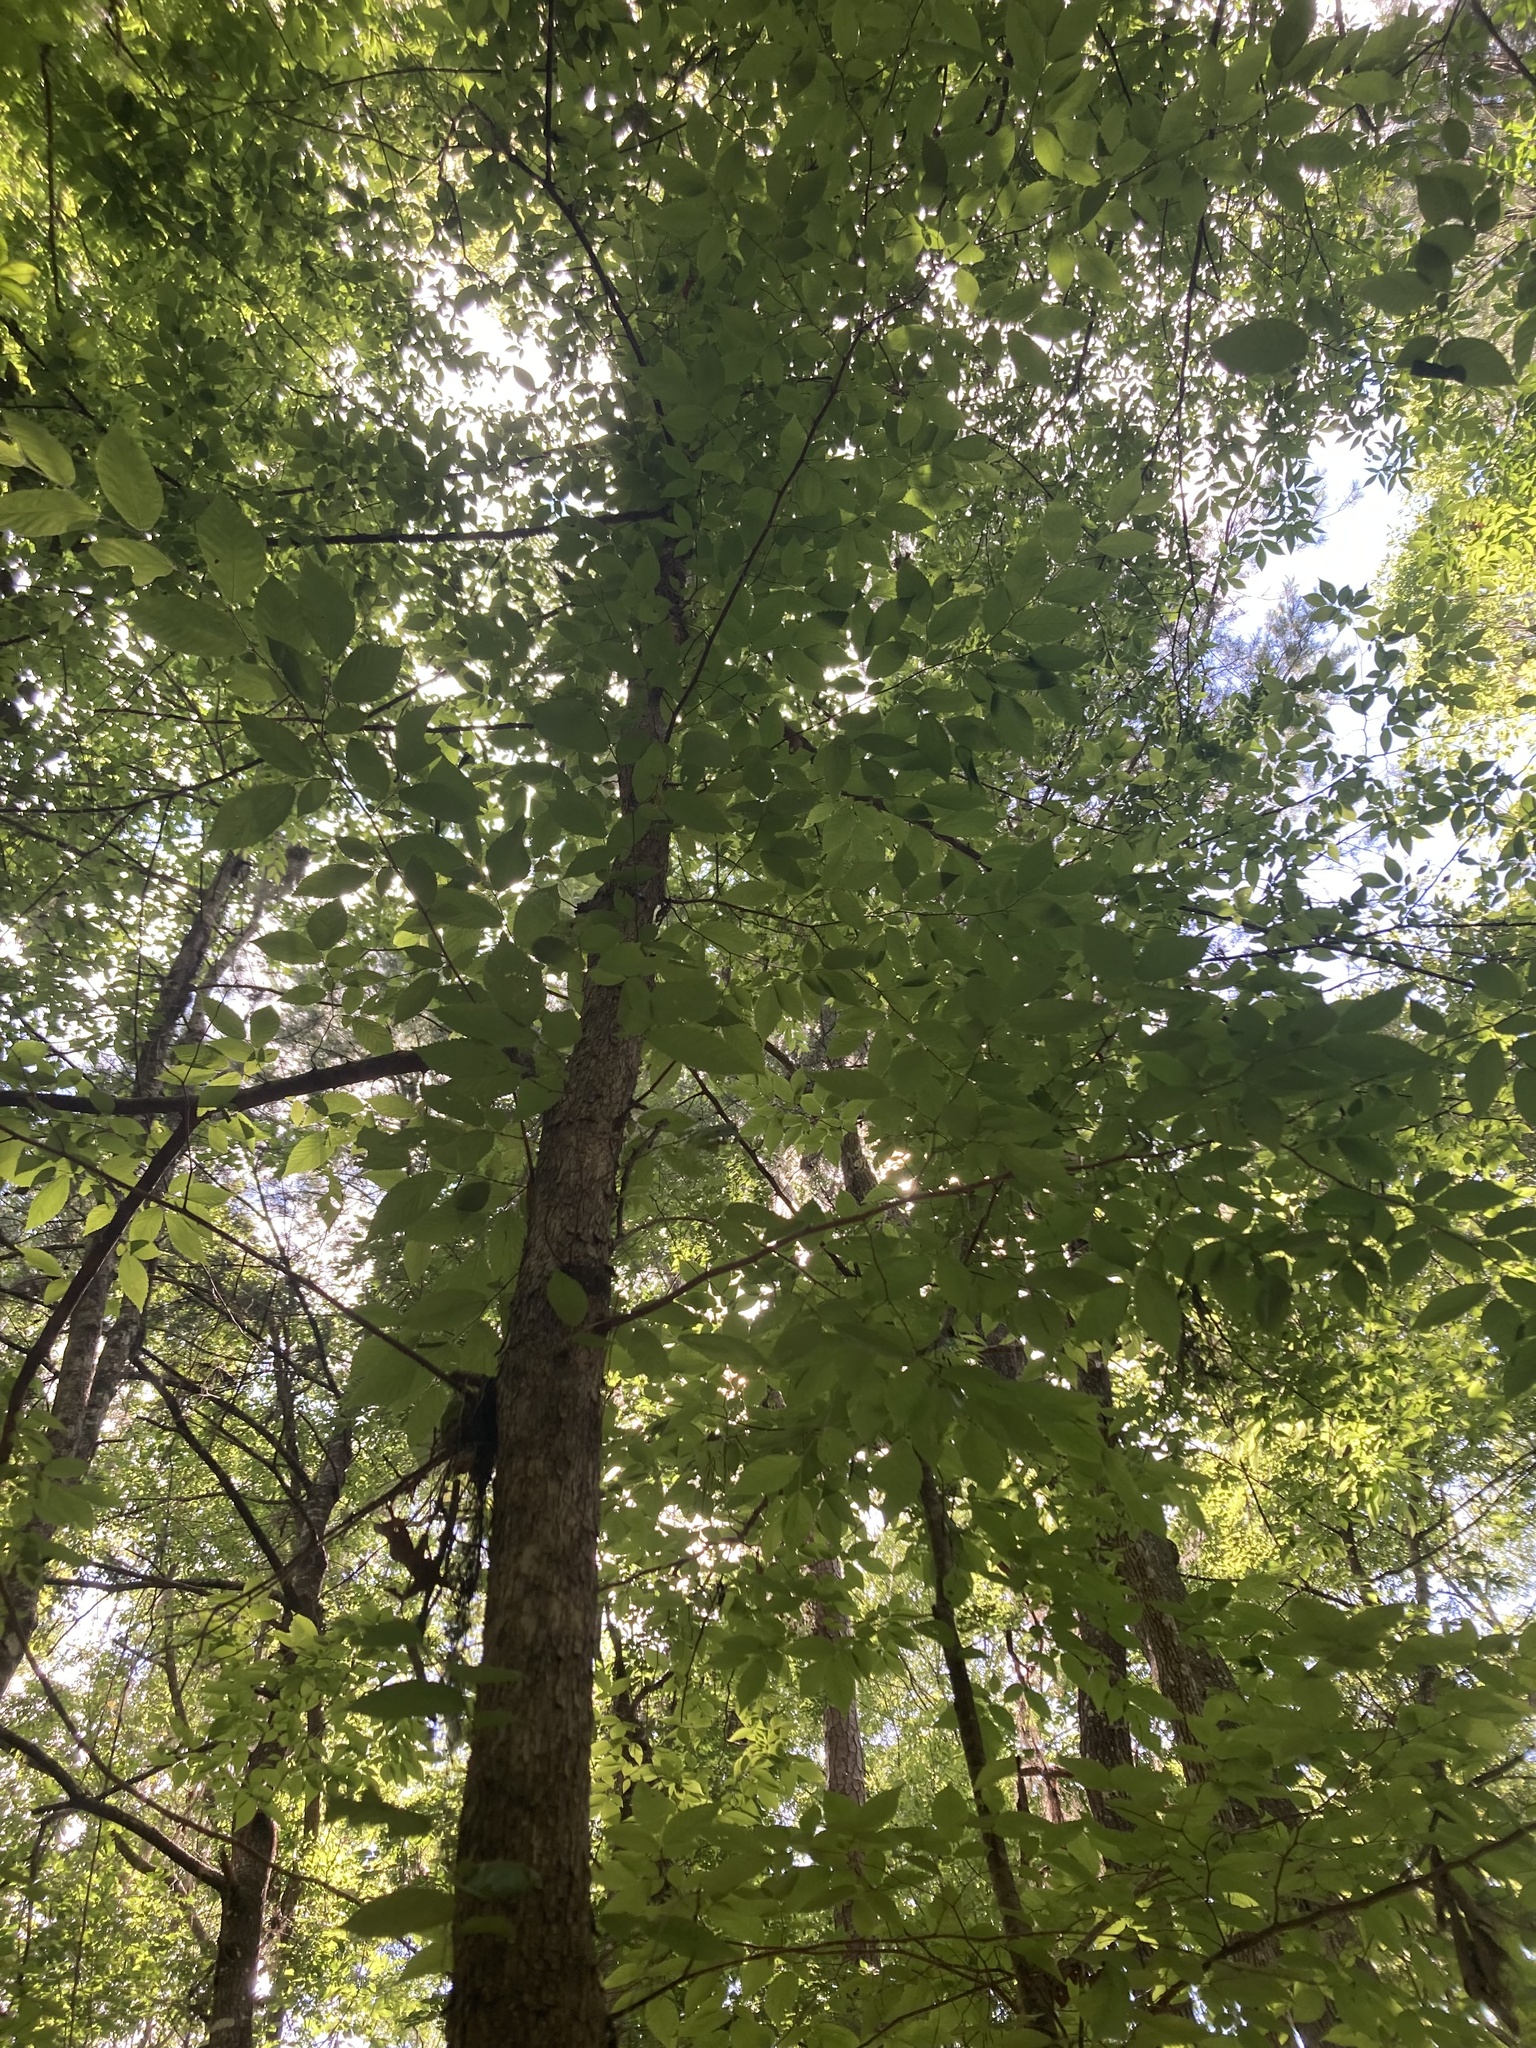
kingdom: Plantae
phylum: Tracheophyta
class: Magnoliopsida
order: Fagales
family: Betulaceae
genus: Ostrya
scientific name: Ostrya virginiana
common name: Ironwood
